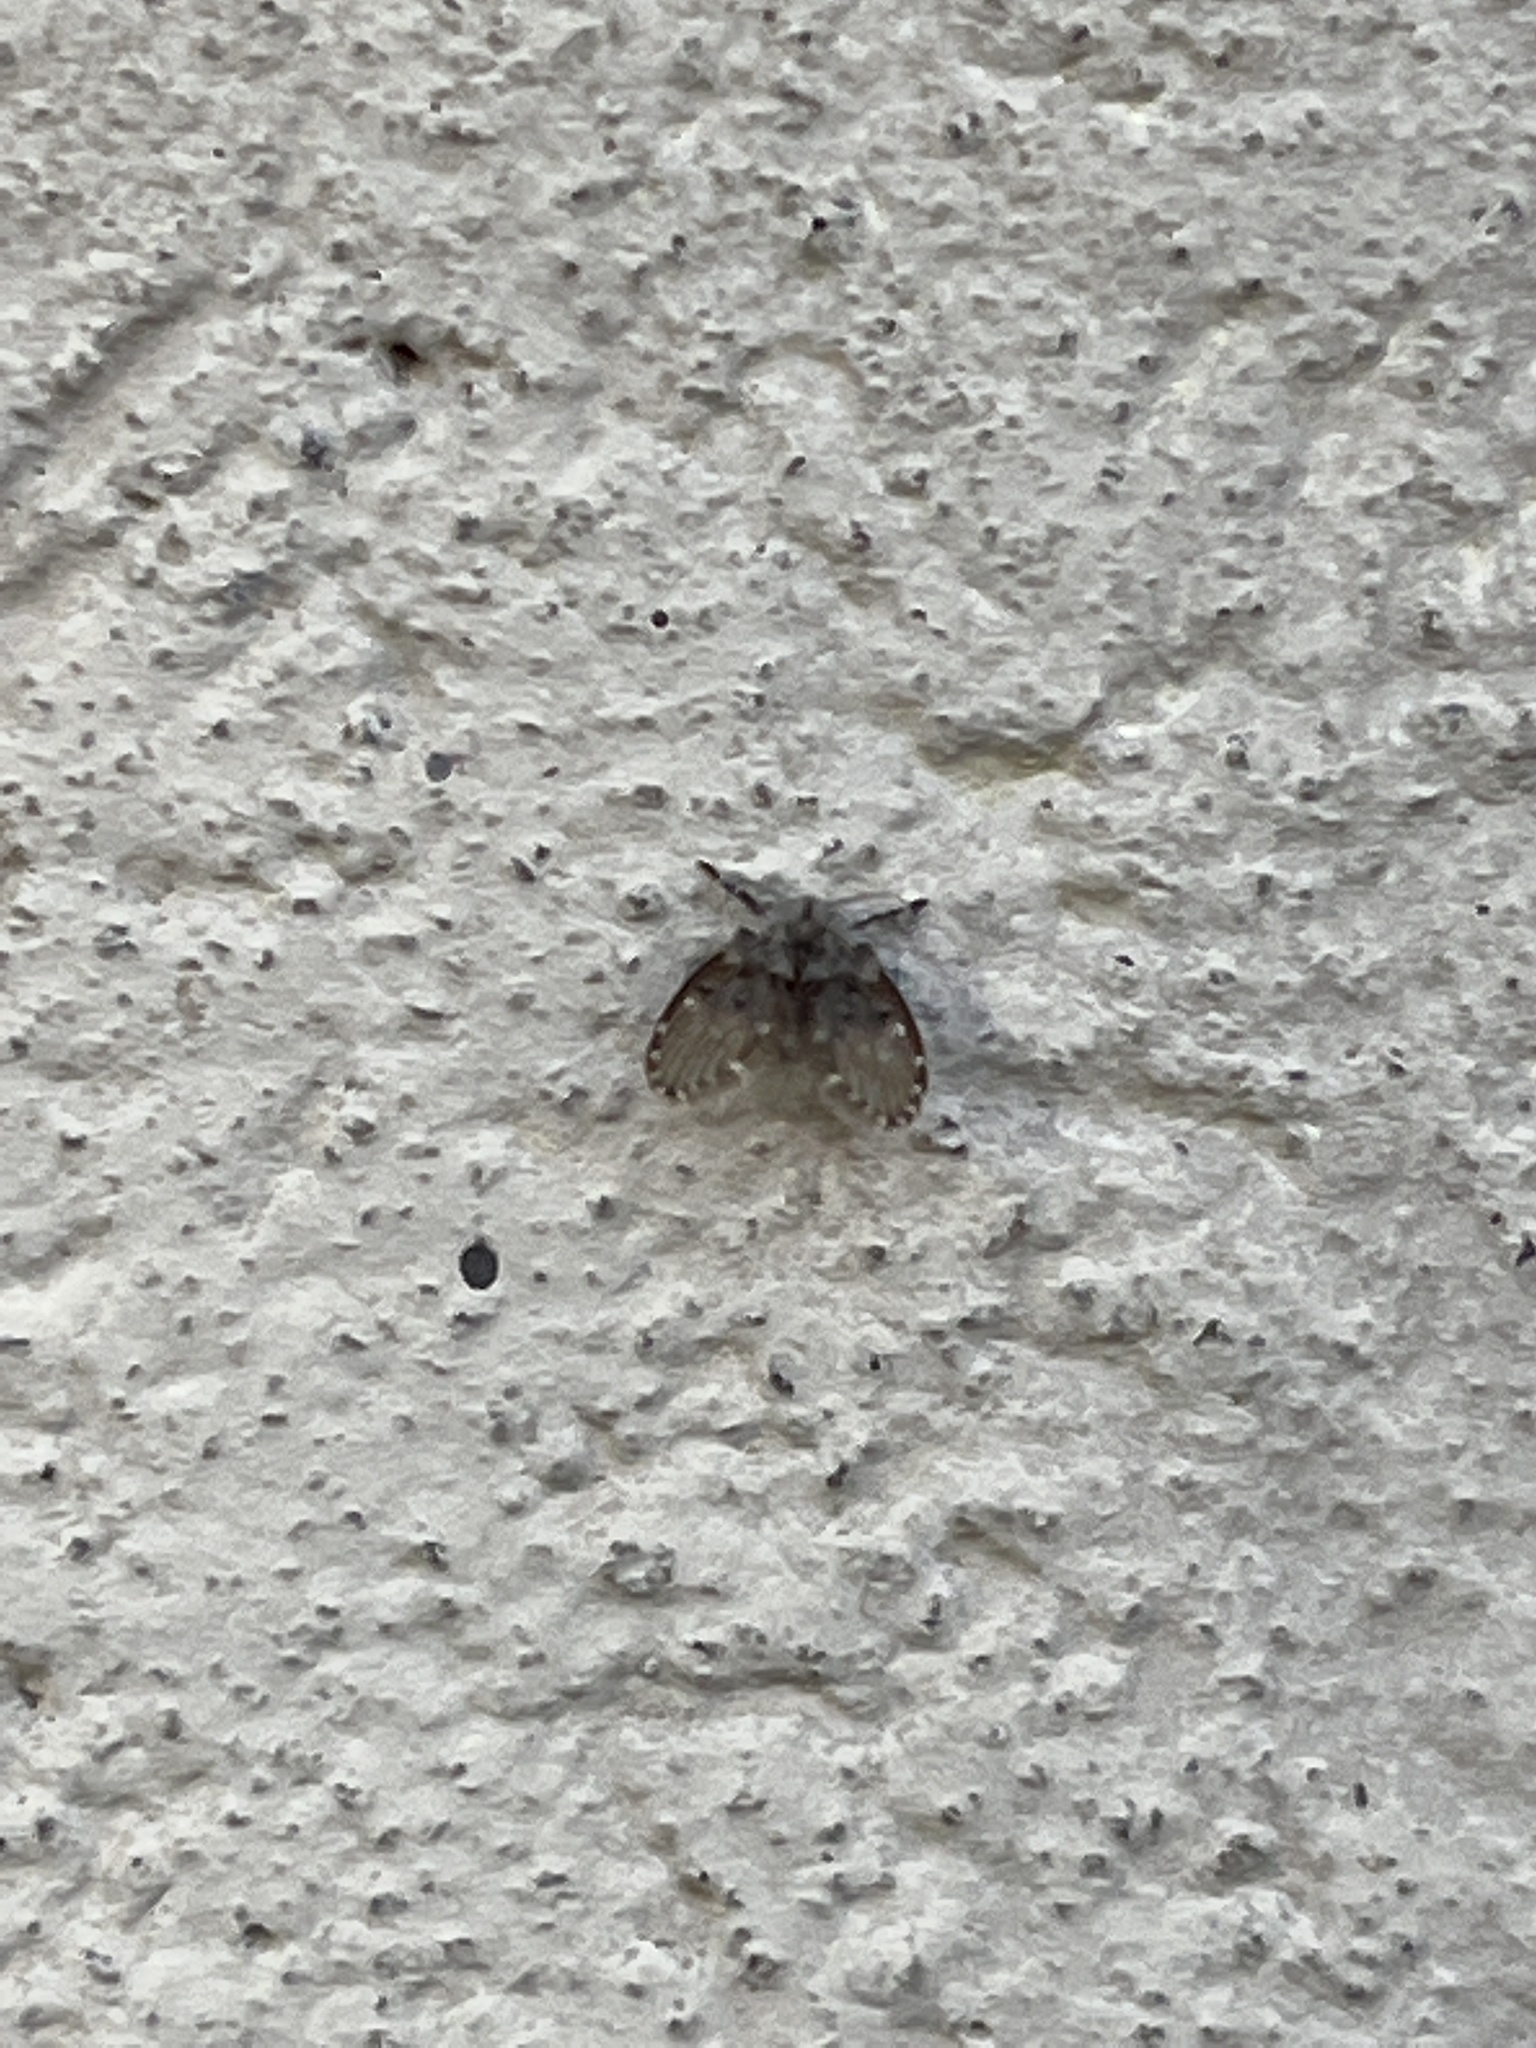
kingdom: Animalia
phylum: Arthropoda
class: Insecta
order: Diptera
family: Psychodidae
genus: Clogmia
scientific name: Clogmia albipunctatus
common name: White-spotted moth fly
